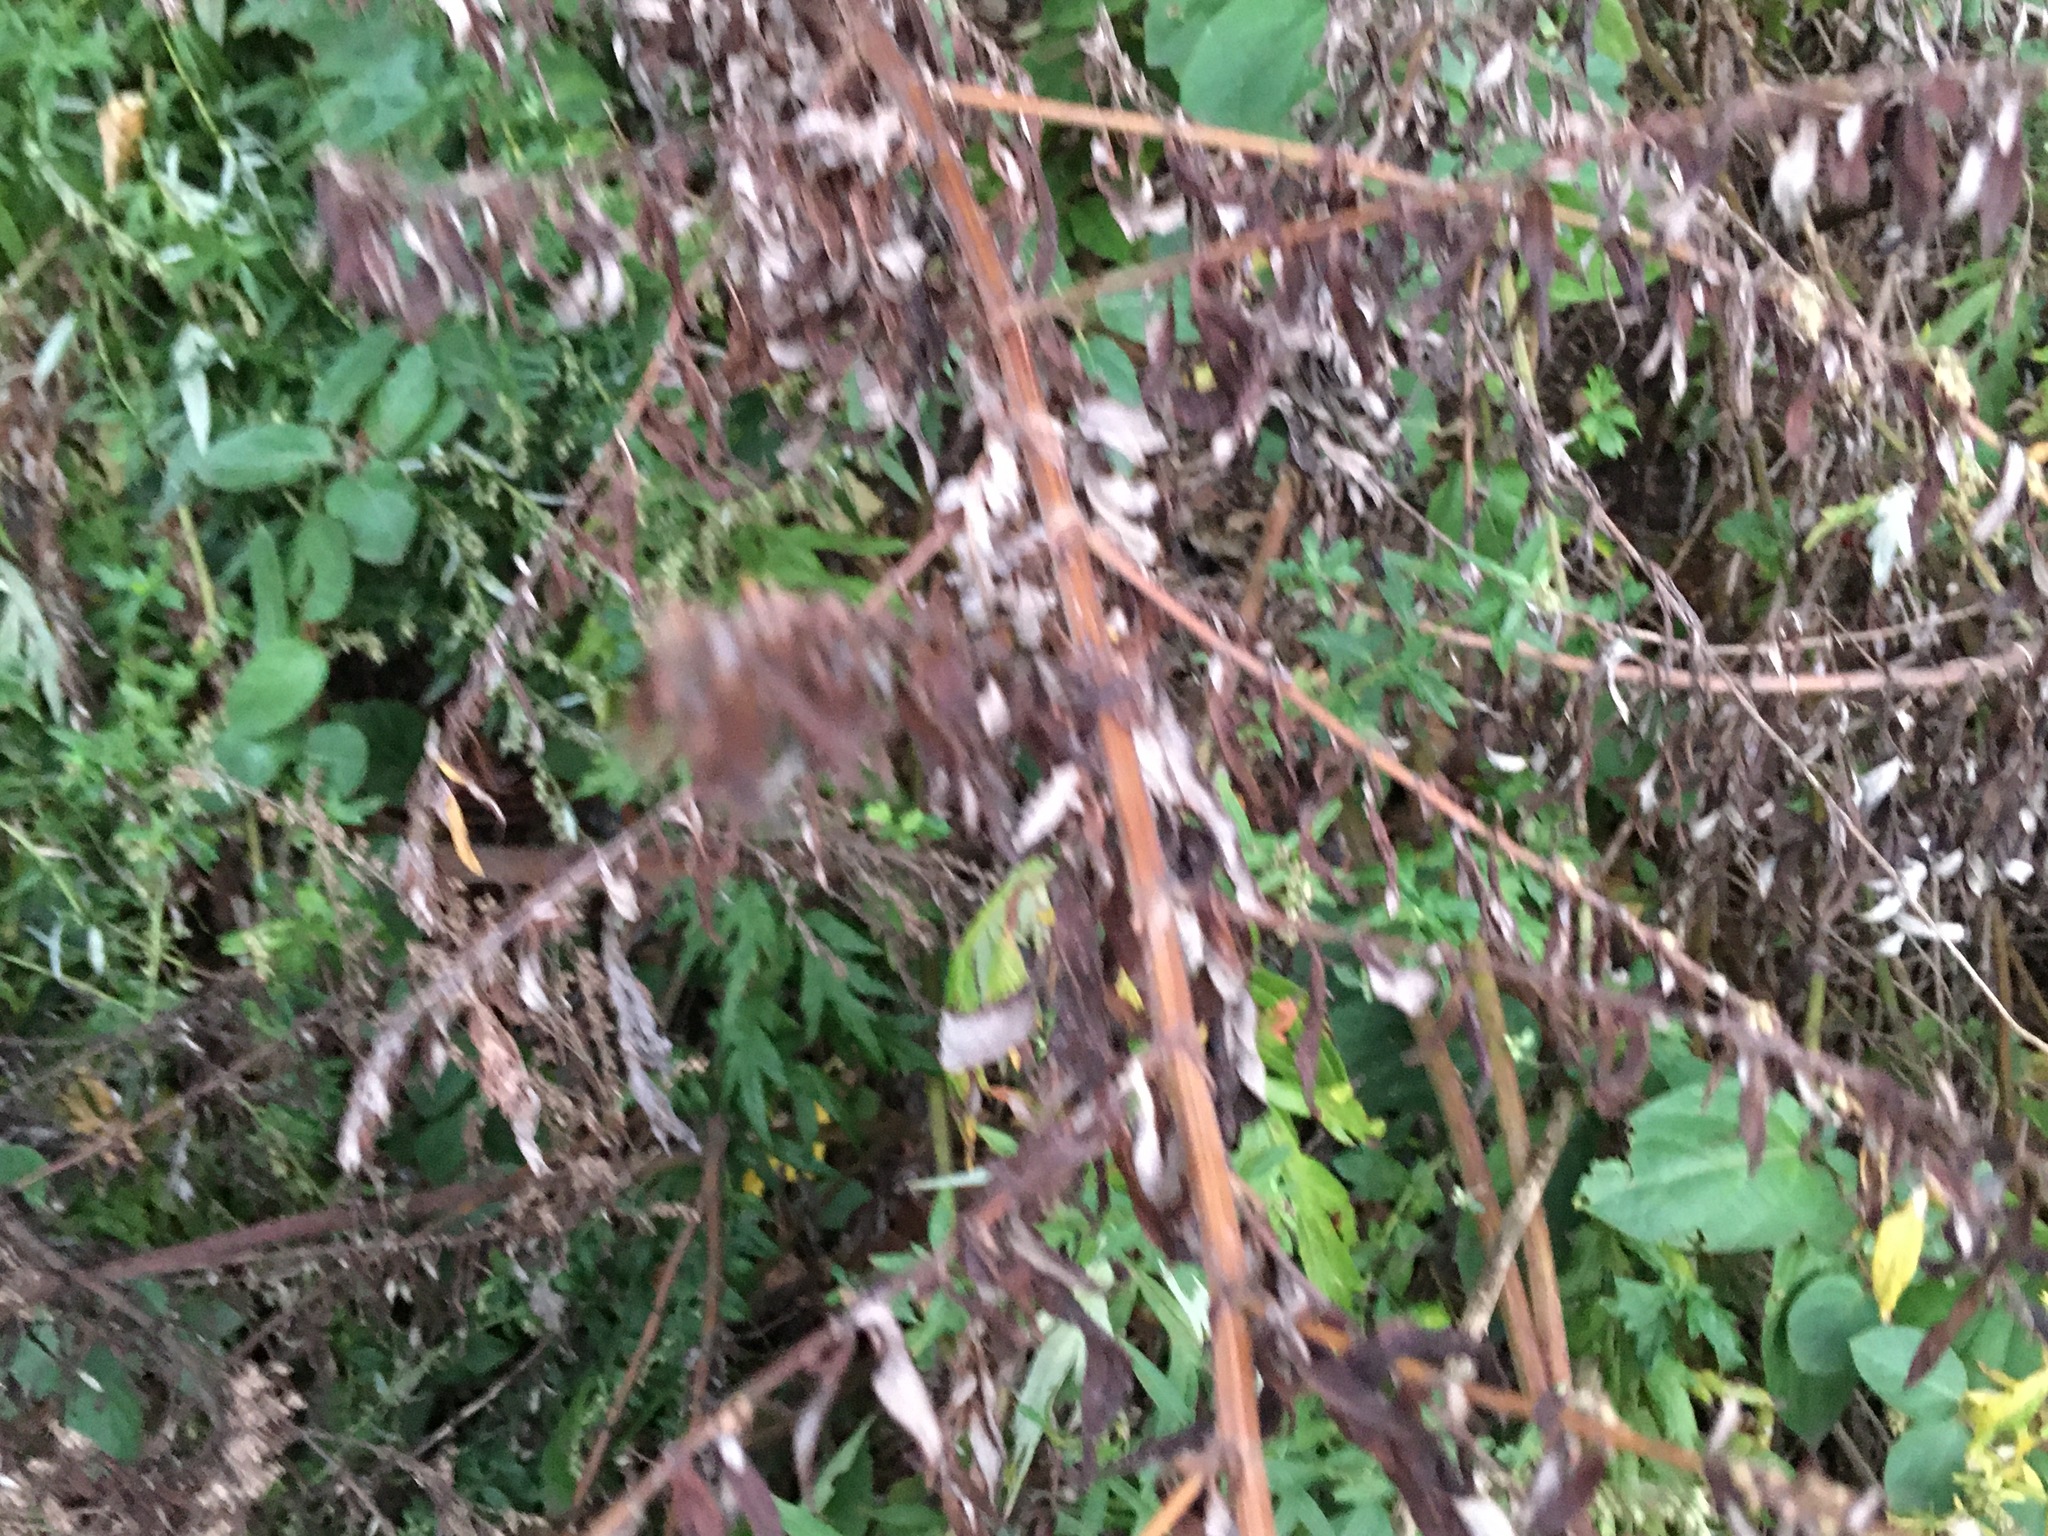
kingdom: Plantae
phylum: Tracheophyta
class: Magnoliopsida
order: Asterales
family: Asteraceae
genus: Artemisia
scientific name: Artemisia vulgaris
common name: Mugwort
